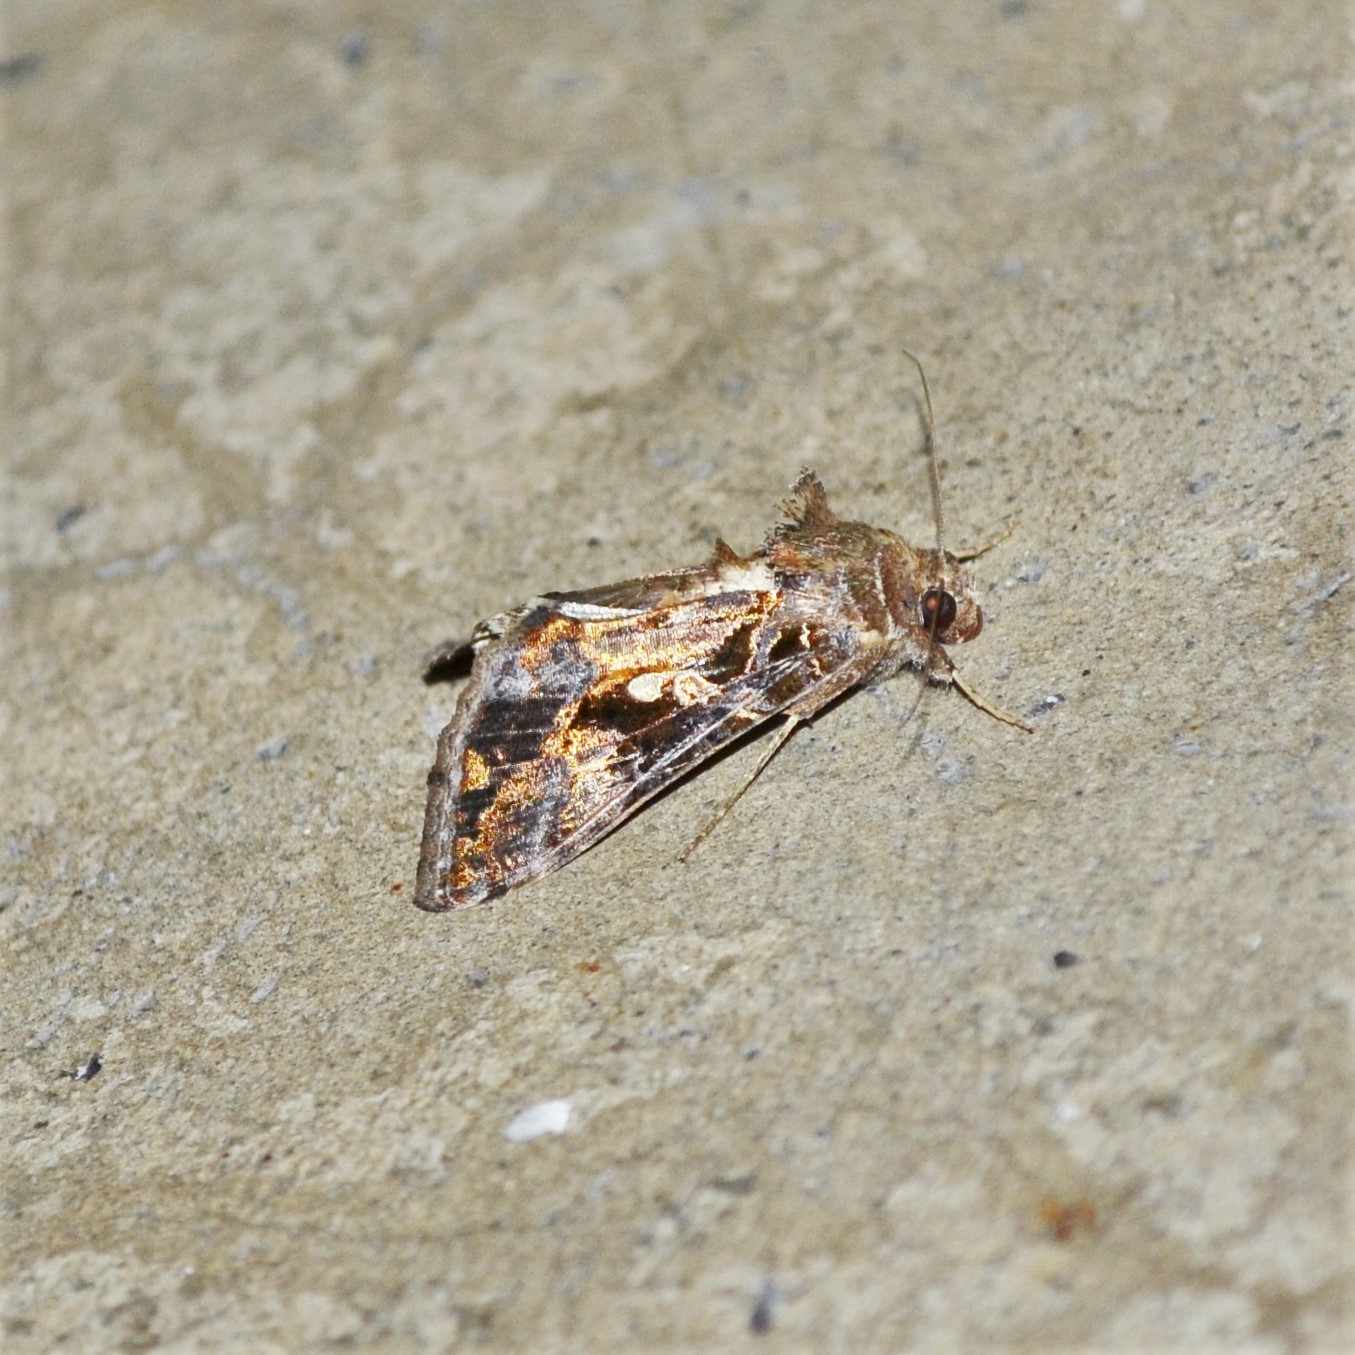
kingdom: Animalia
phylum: Arthropoda
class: Insecta
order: Lepidoptera
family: Noctuidae
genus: Chrysodeixis
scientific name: Chrysodeixis includens
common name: Cutworm moth
